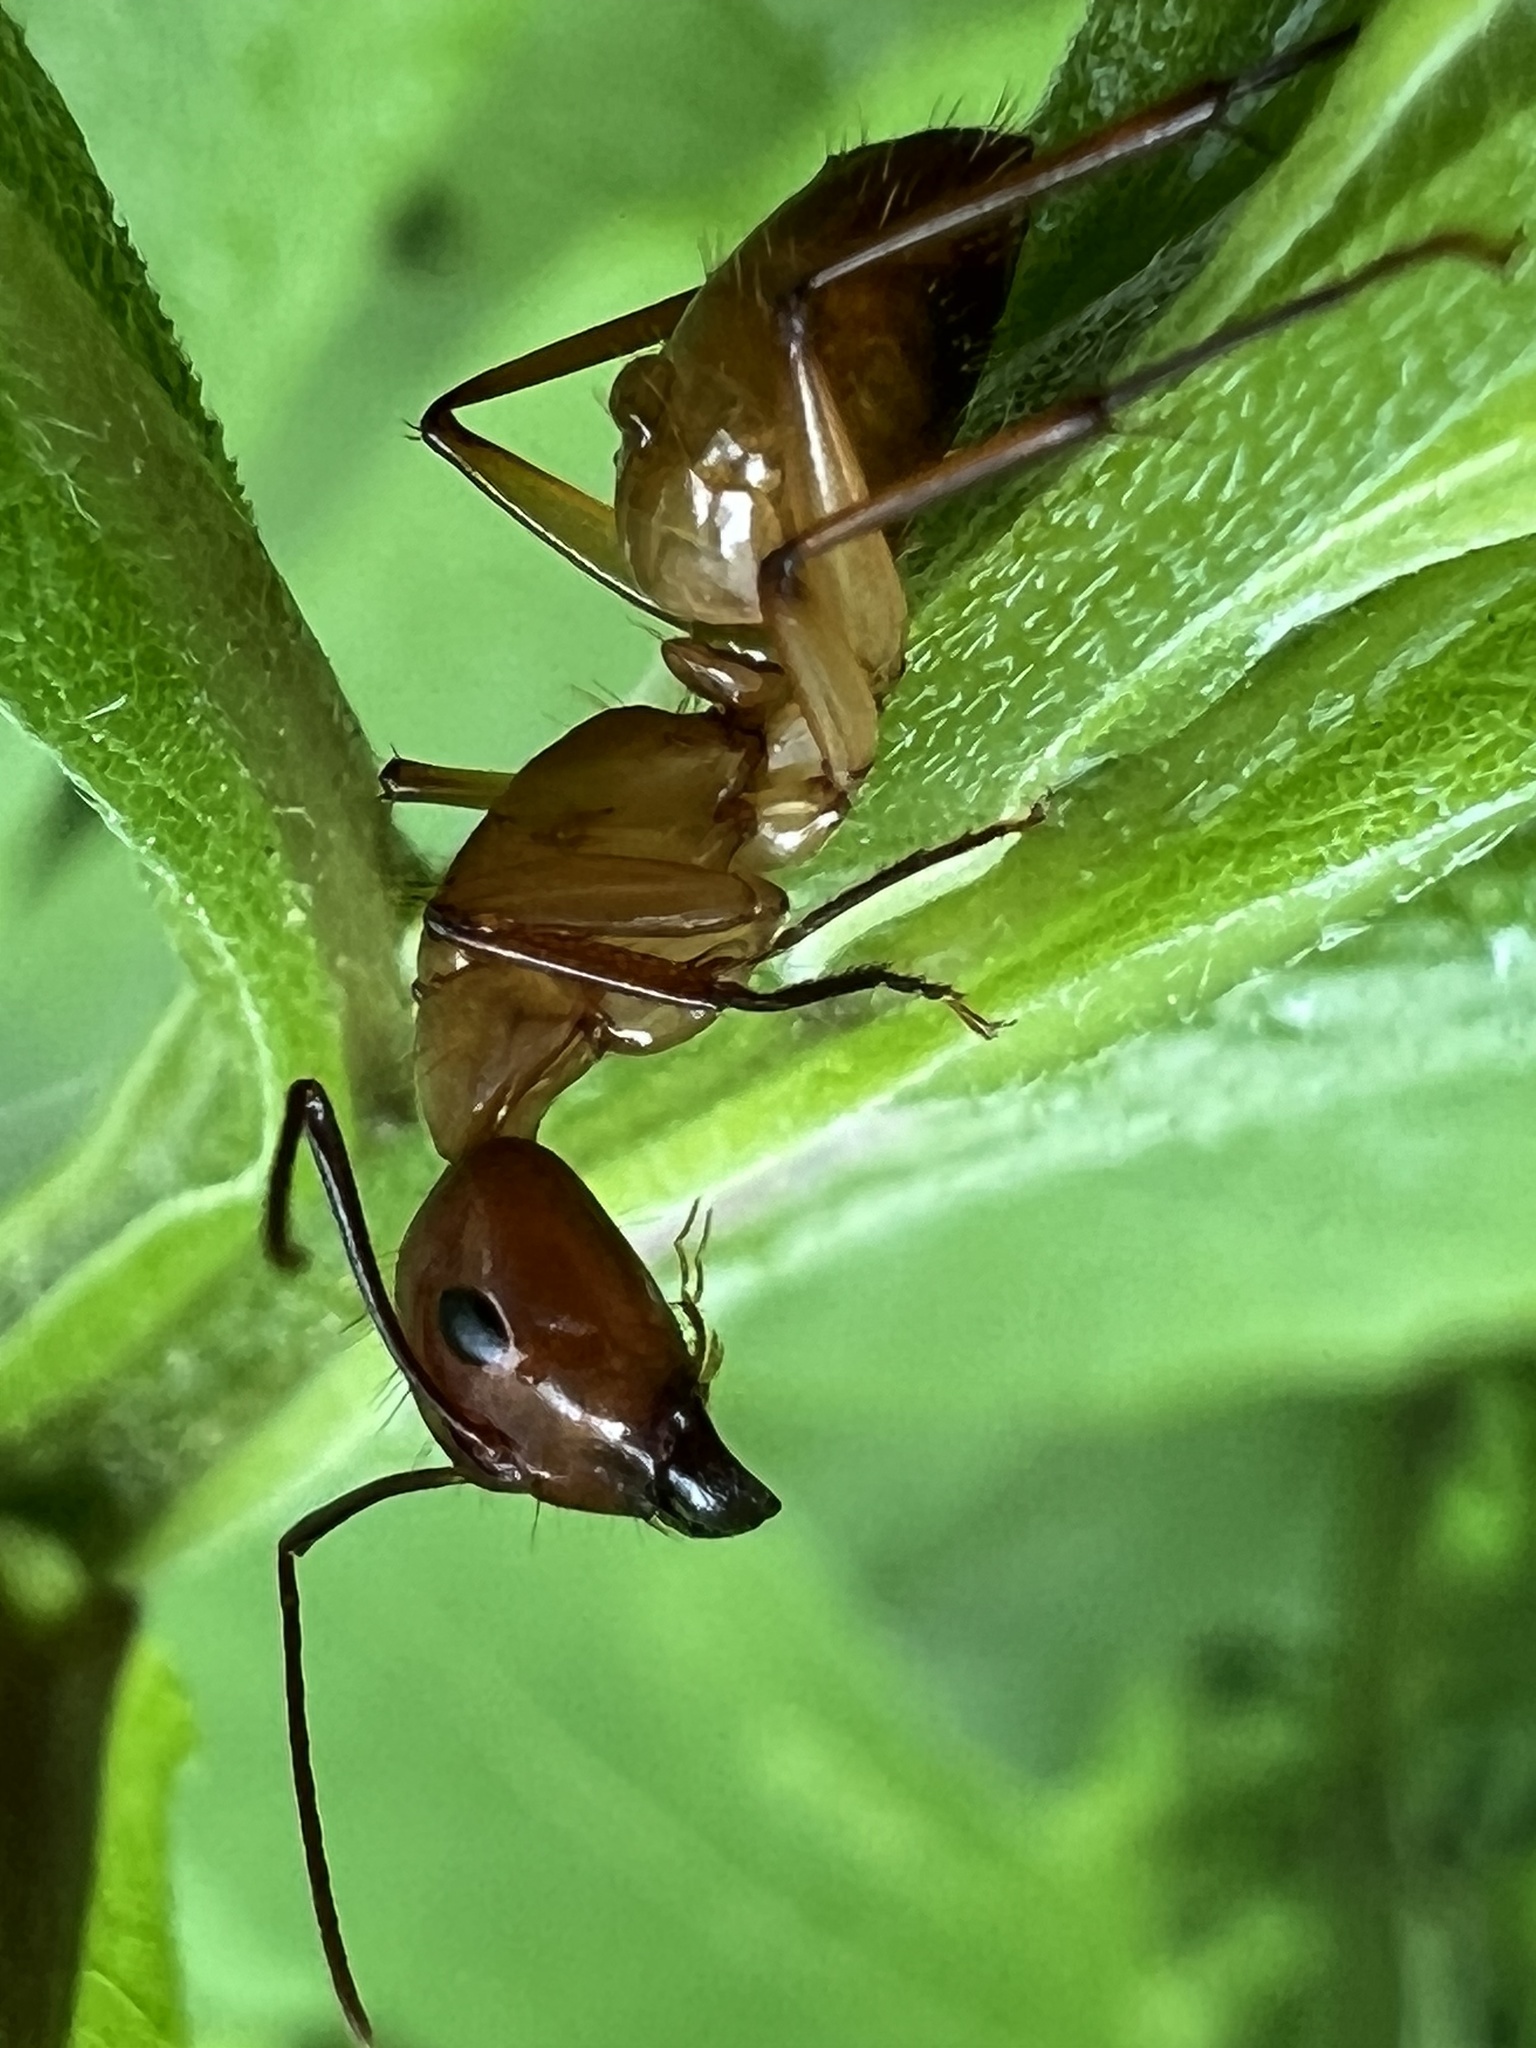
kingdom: Animalia
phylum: Arthropoda
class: Insecta
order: Hymenoptera
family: Formicidae
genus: Camponotus
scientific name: Camponotus castaneus
